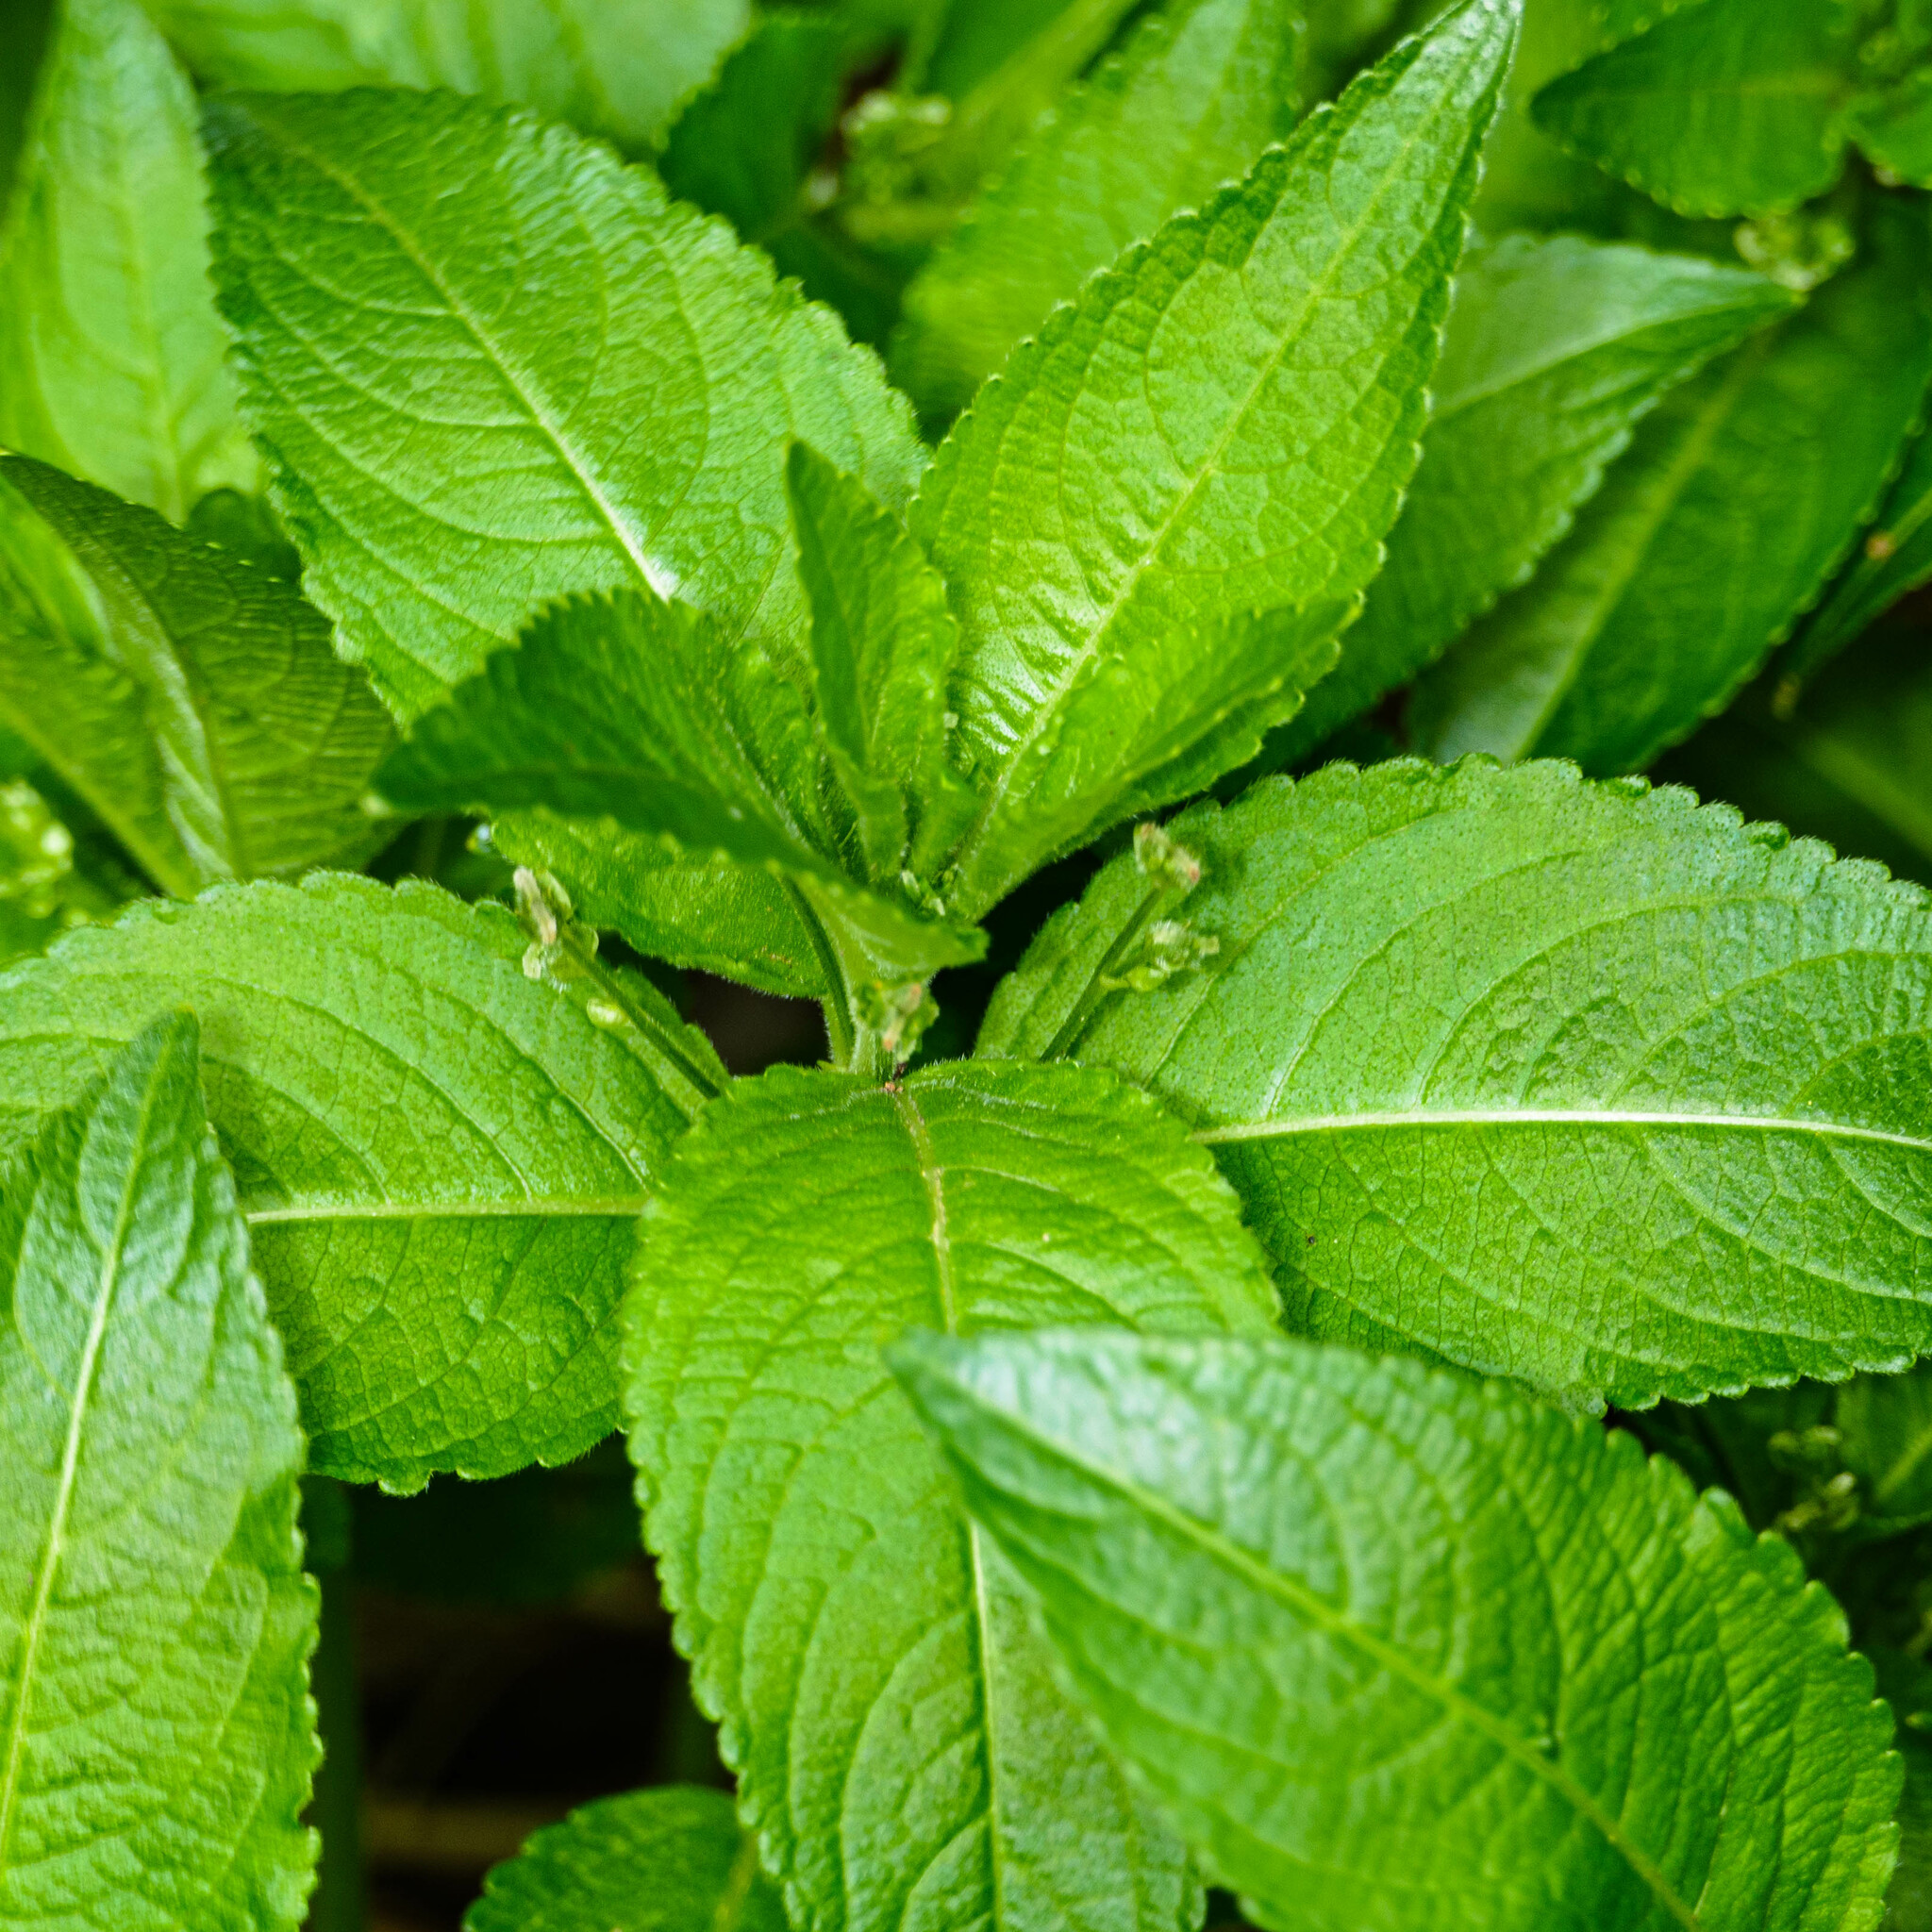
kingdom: Plantae
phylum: Tracheophyta
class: Magnoliopsida
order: Malpighiales
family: Euphorbiaceae
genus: Mercurialis
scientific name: Mercurialis perennis
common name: Dog mercury
